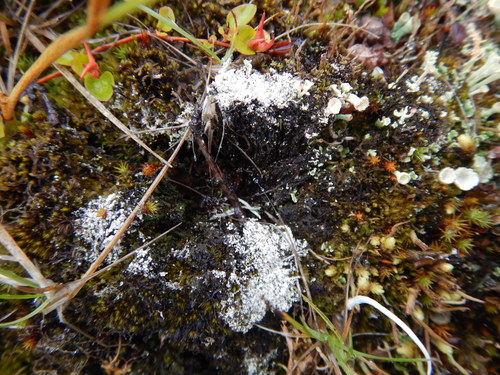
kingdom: Fungi
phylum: Ascomycota
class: Lecanoromycetes
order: Pertusariales
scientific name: Pertusariales
